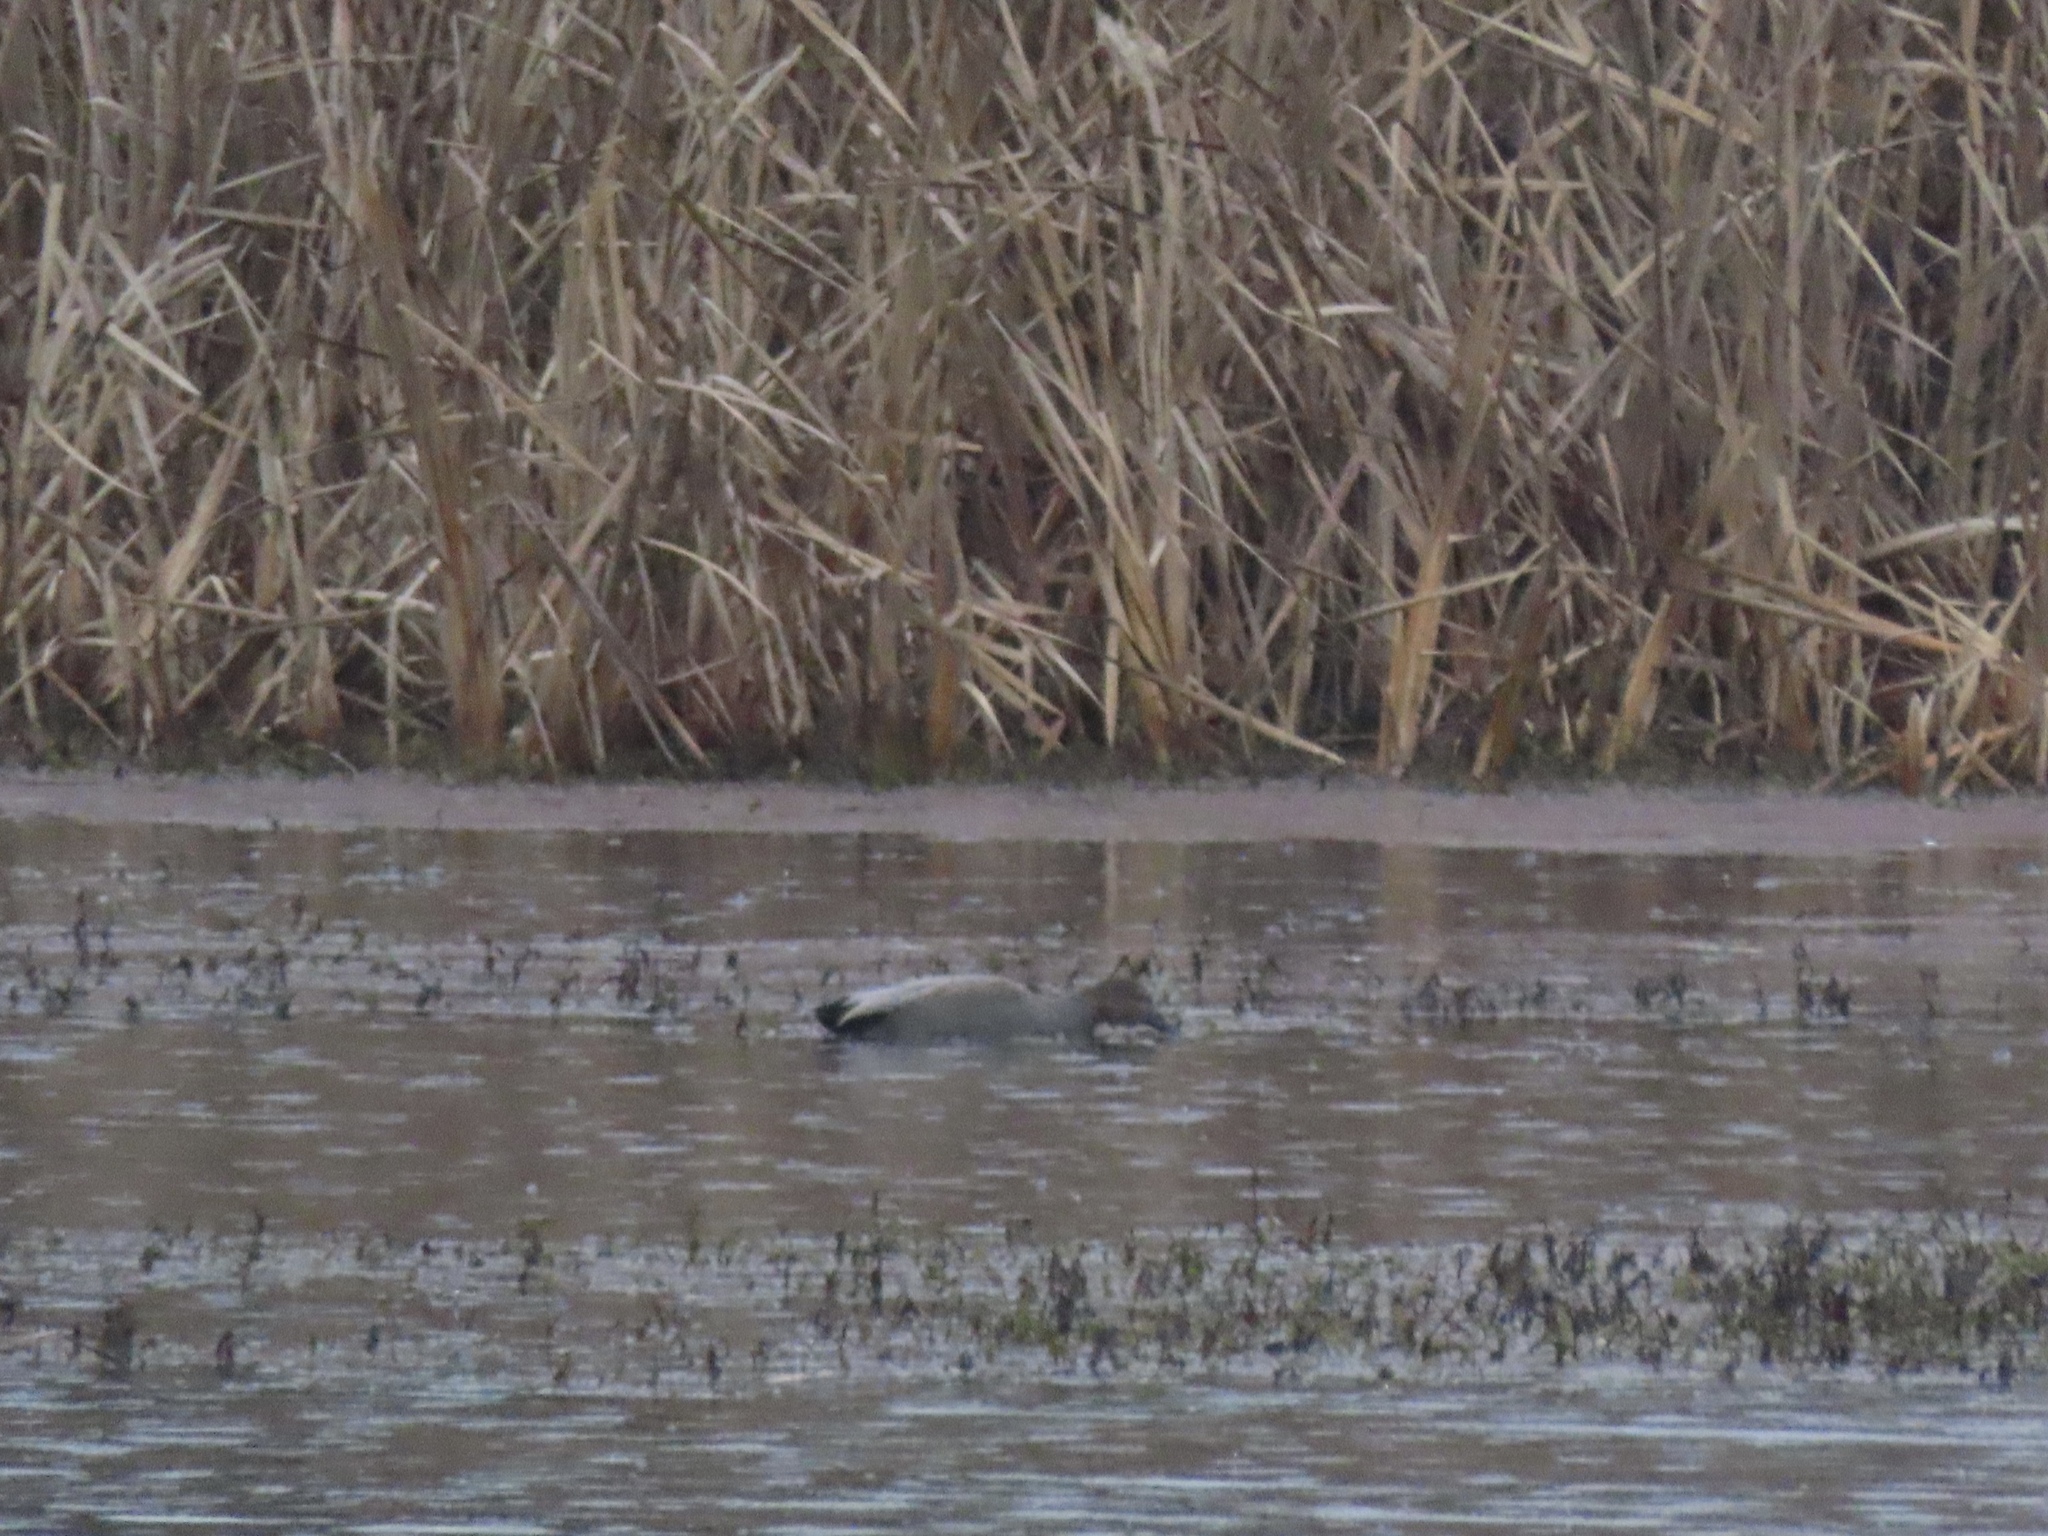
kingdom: Animalia
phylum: Chordata
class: Aves
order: Anseriformes
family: Anatidae
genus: Mareca
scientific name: Mareca strepera
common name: Gadwall
